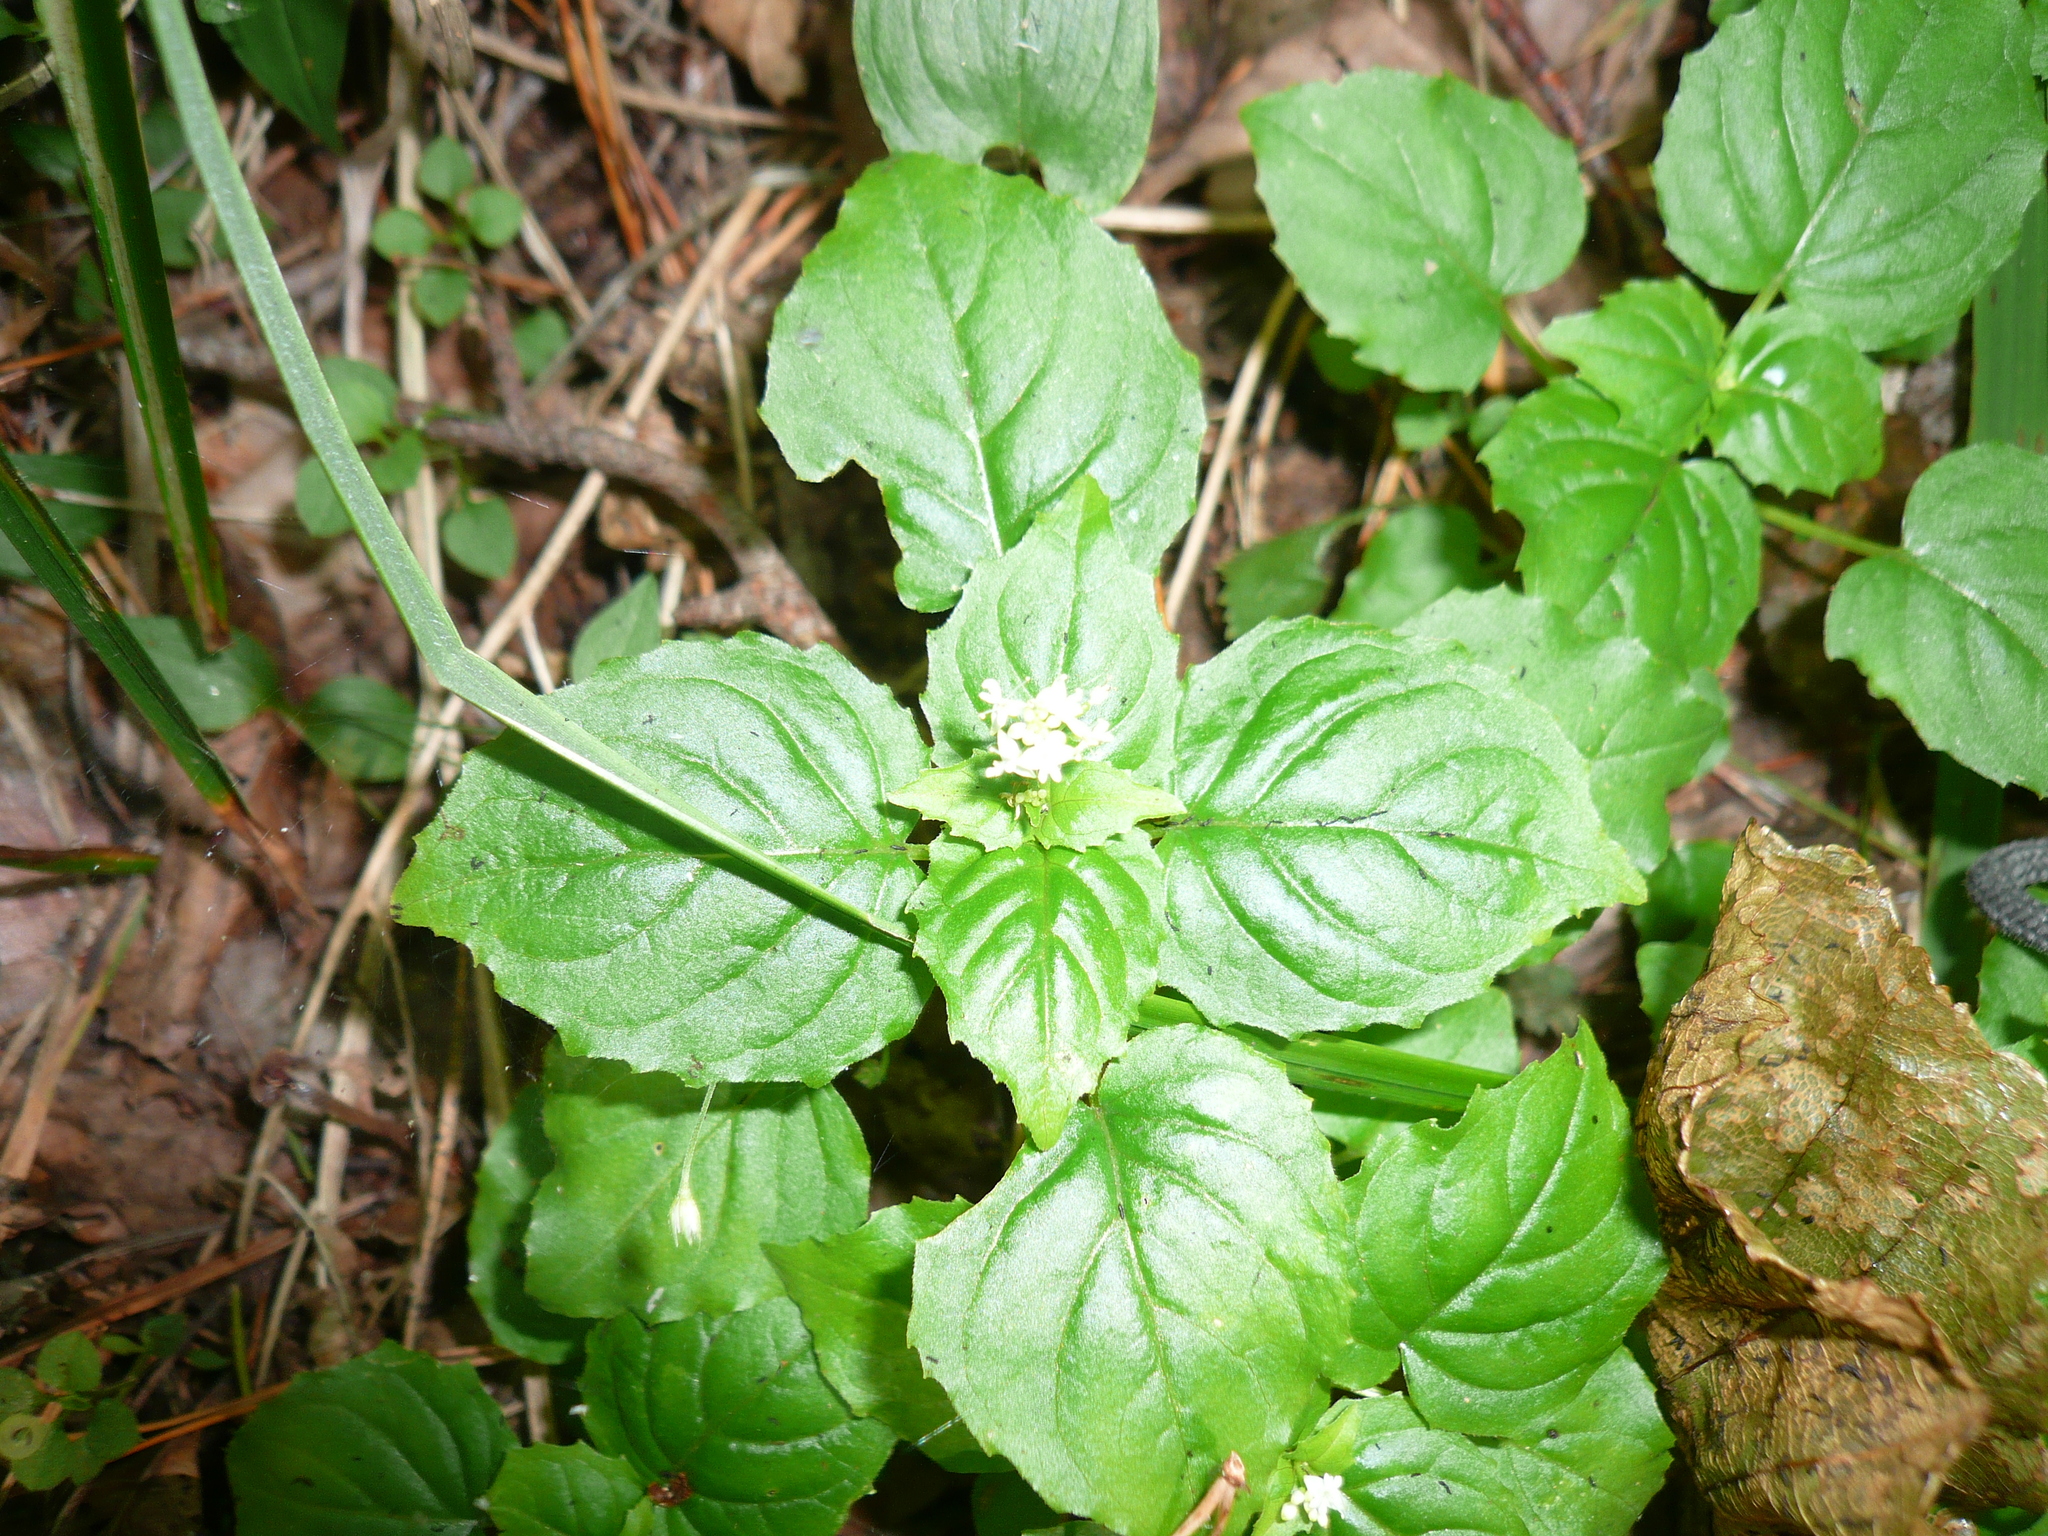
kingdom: Plantae
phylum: Tracheophyta
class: Magnoliopsida
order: Myrtales
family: Onagraceae
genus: Circaea
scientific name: Circaea alpina
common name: Alpine enchanter's-nightshade
